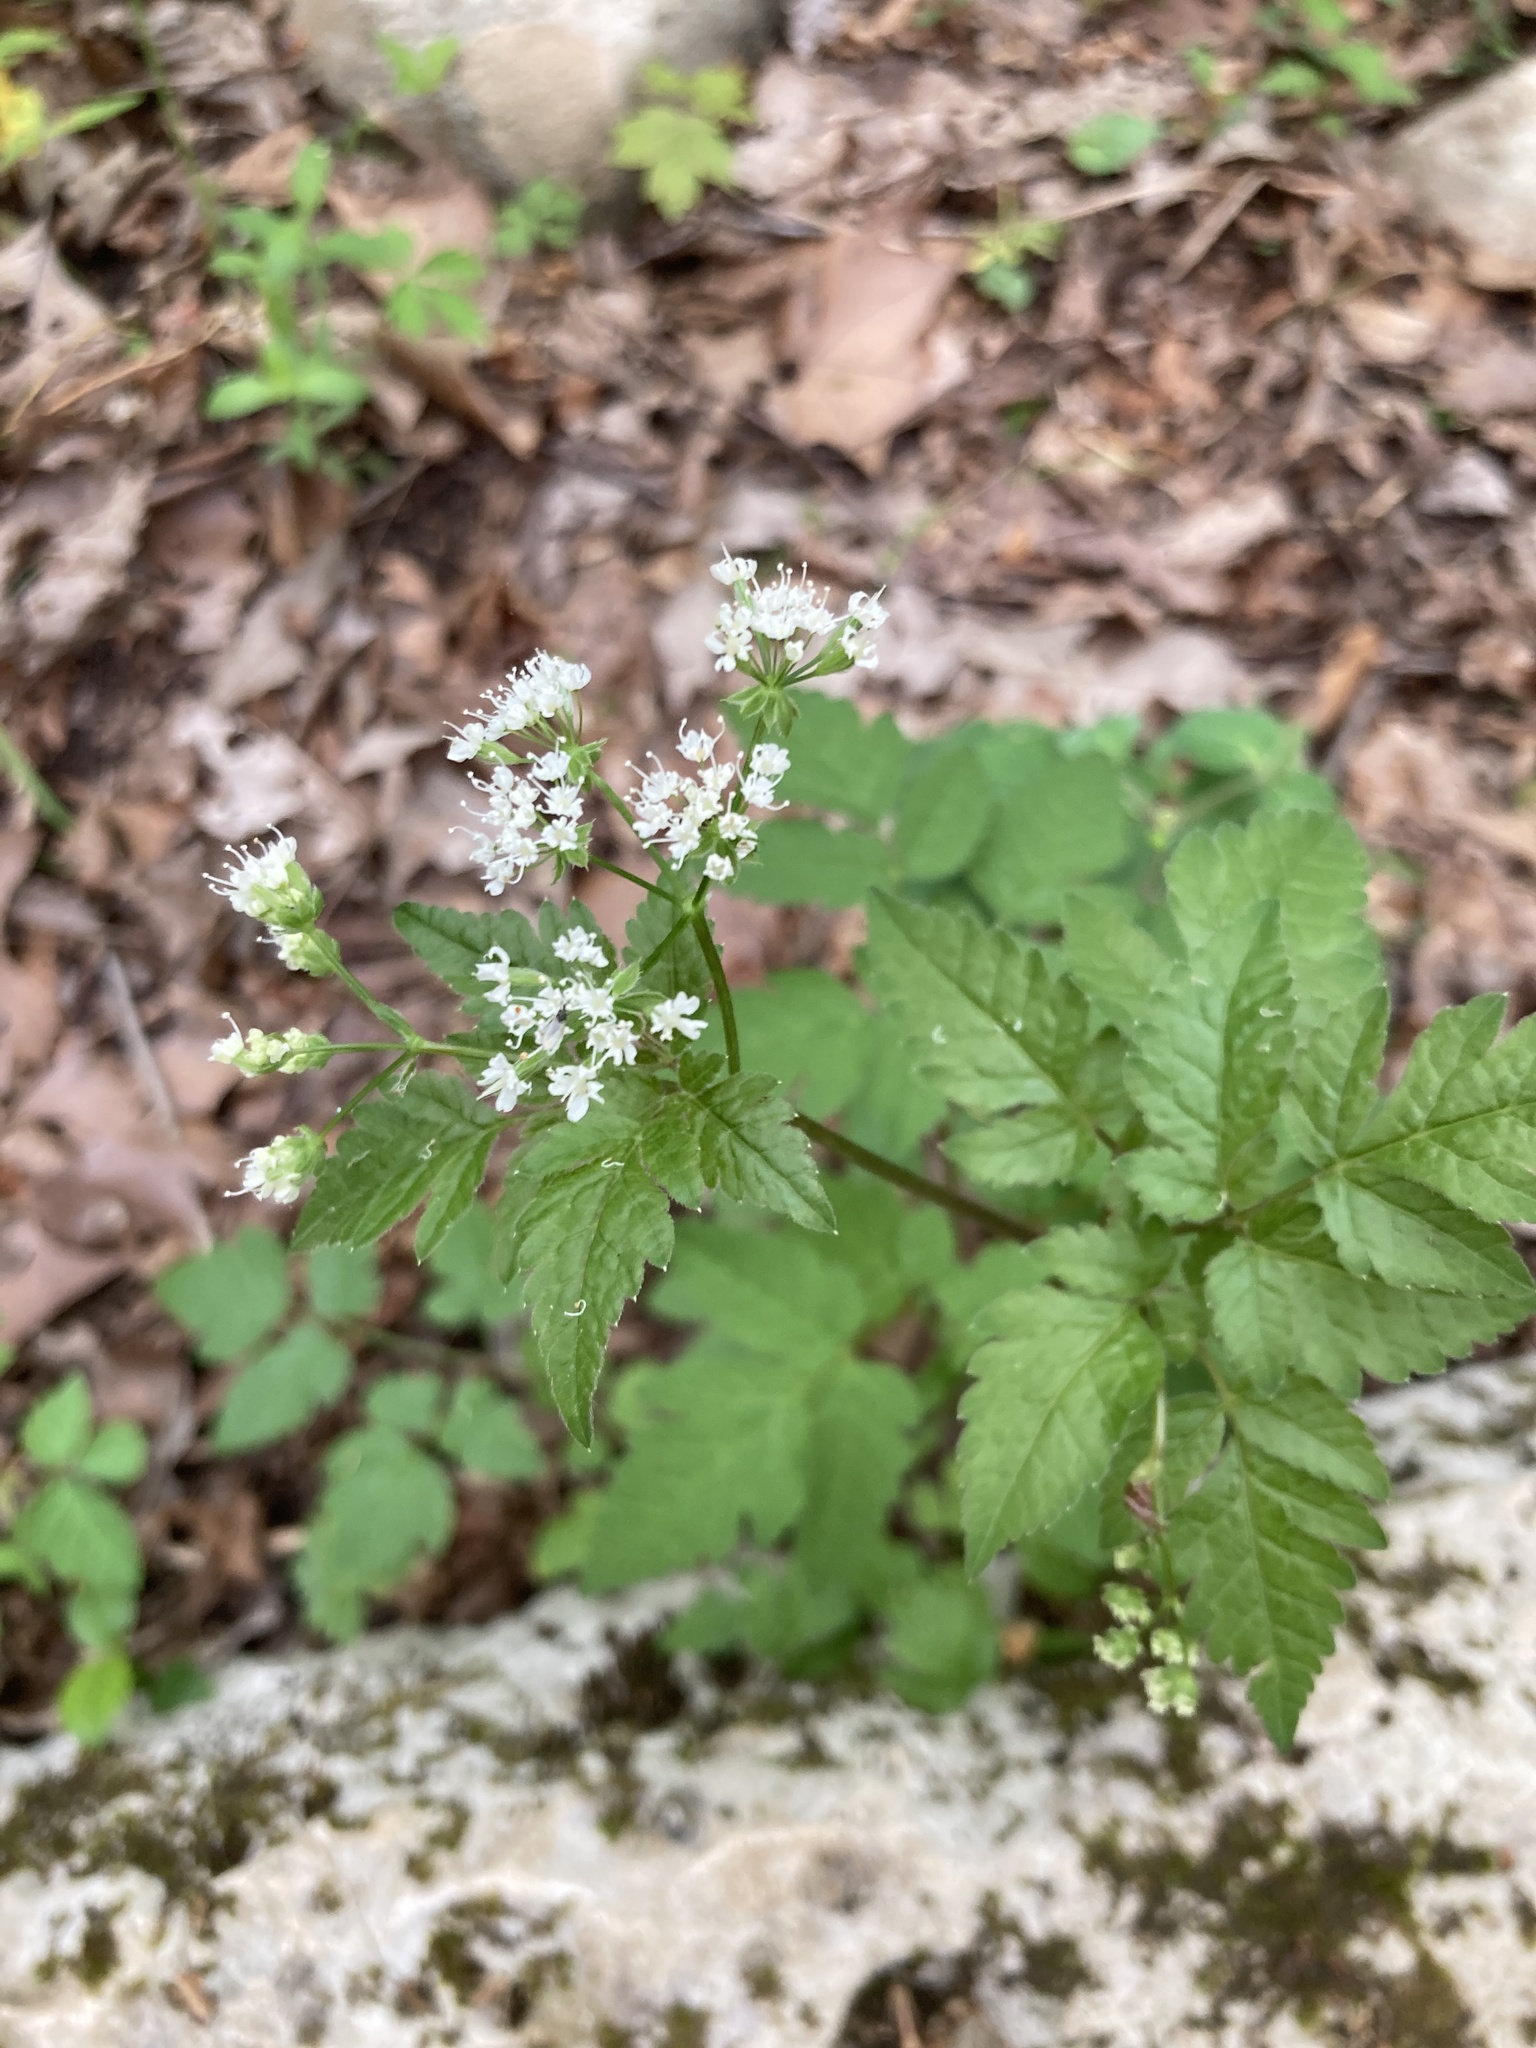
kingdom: Plantae
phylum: Tracheophyta
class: Magnoliopsida
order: Apiales
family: Apiaceae
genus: Osmorhiza
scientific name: Osmorhiza longistylis
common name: Smooth sweet cicely
